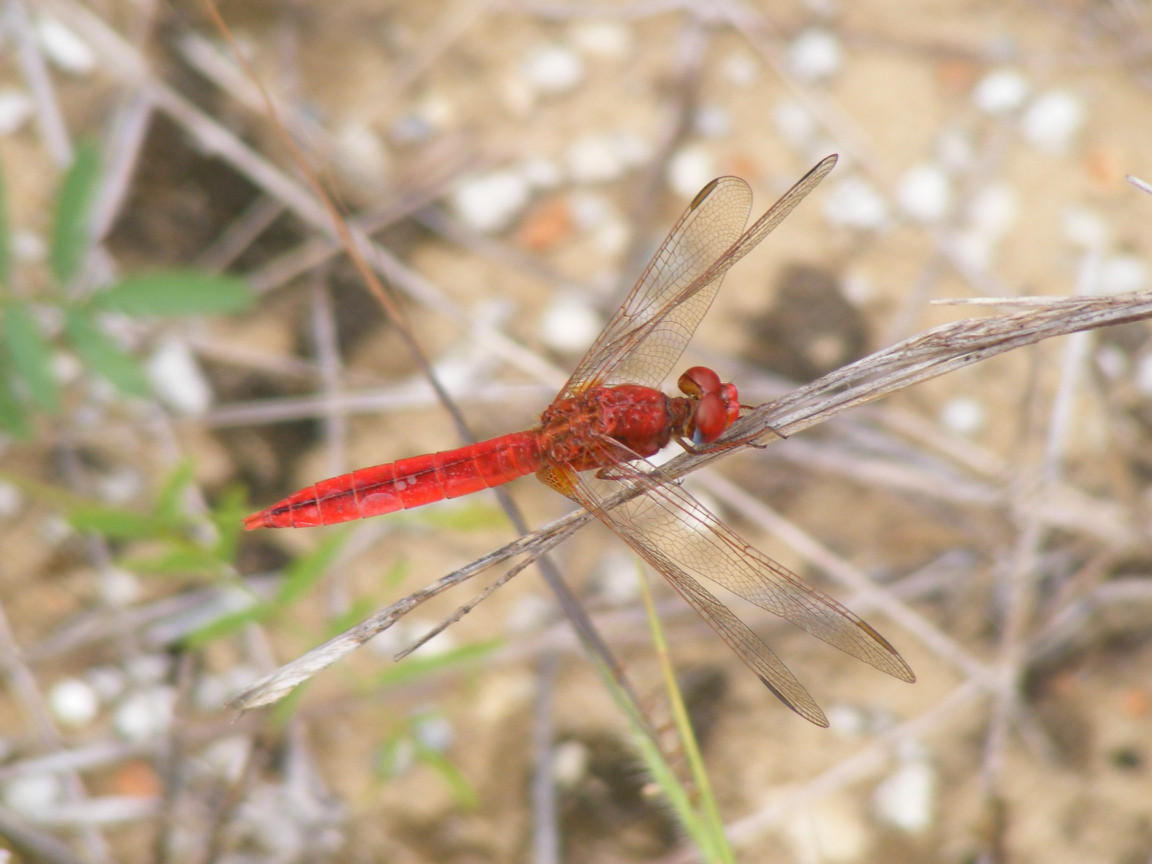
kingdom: Animalia
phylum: Arthropoda
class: Insecta
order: Odonata
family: Libellulidae
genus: Crocothemis
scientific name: Crocothemis erythraea
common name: Scarlet dragonfly
